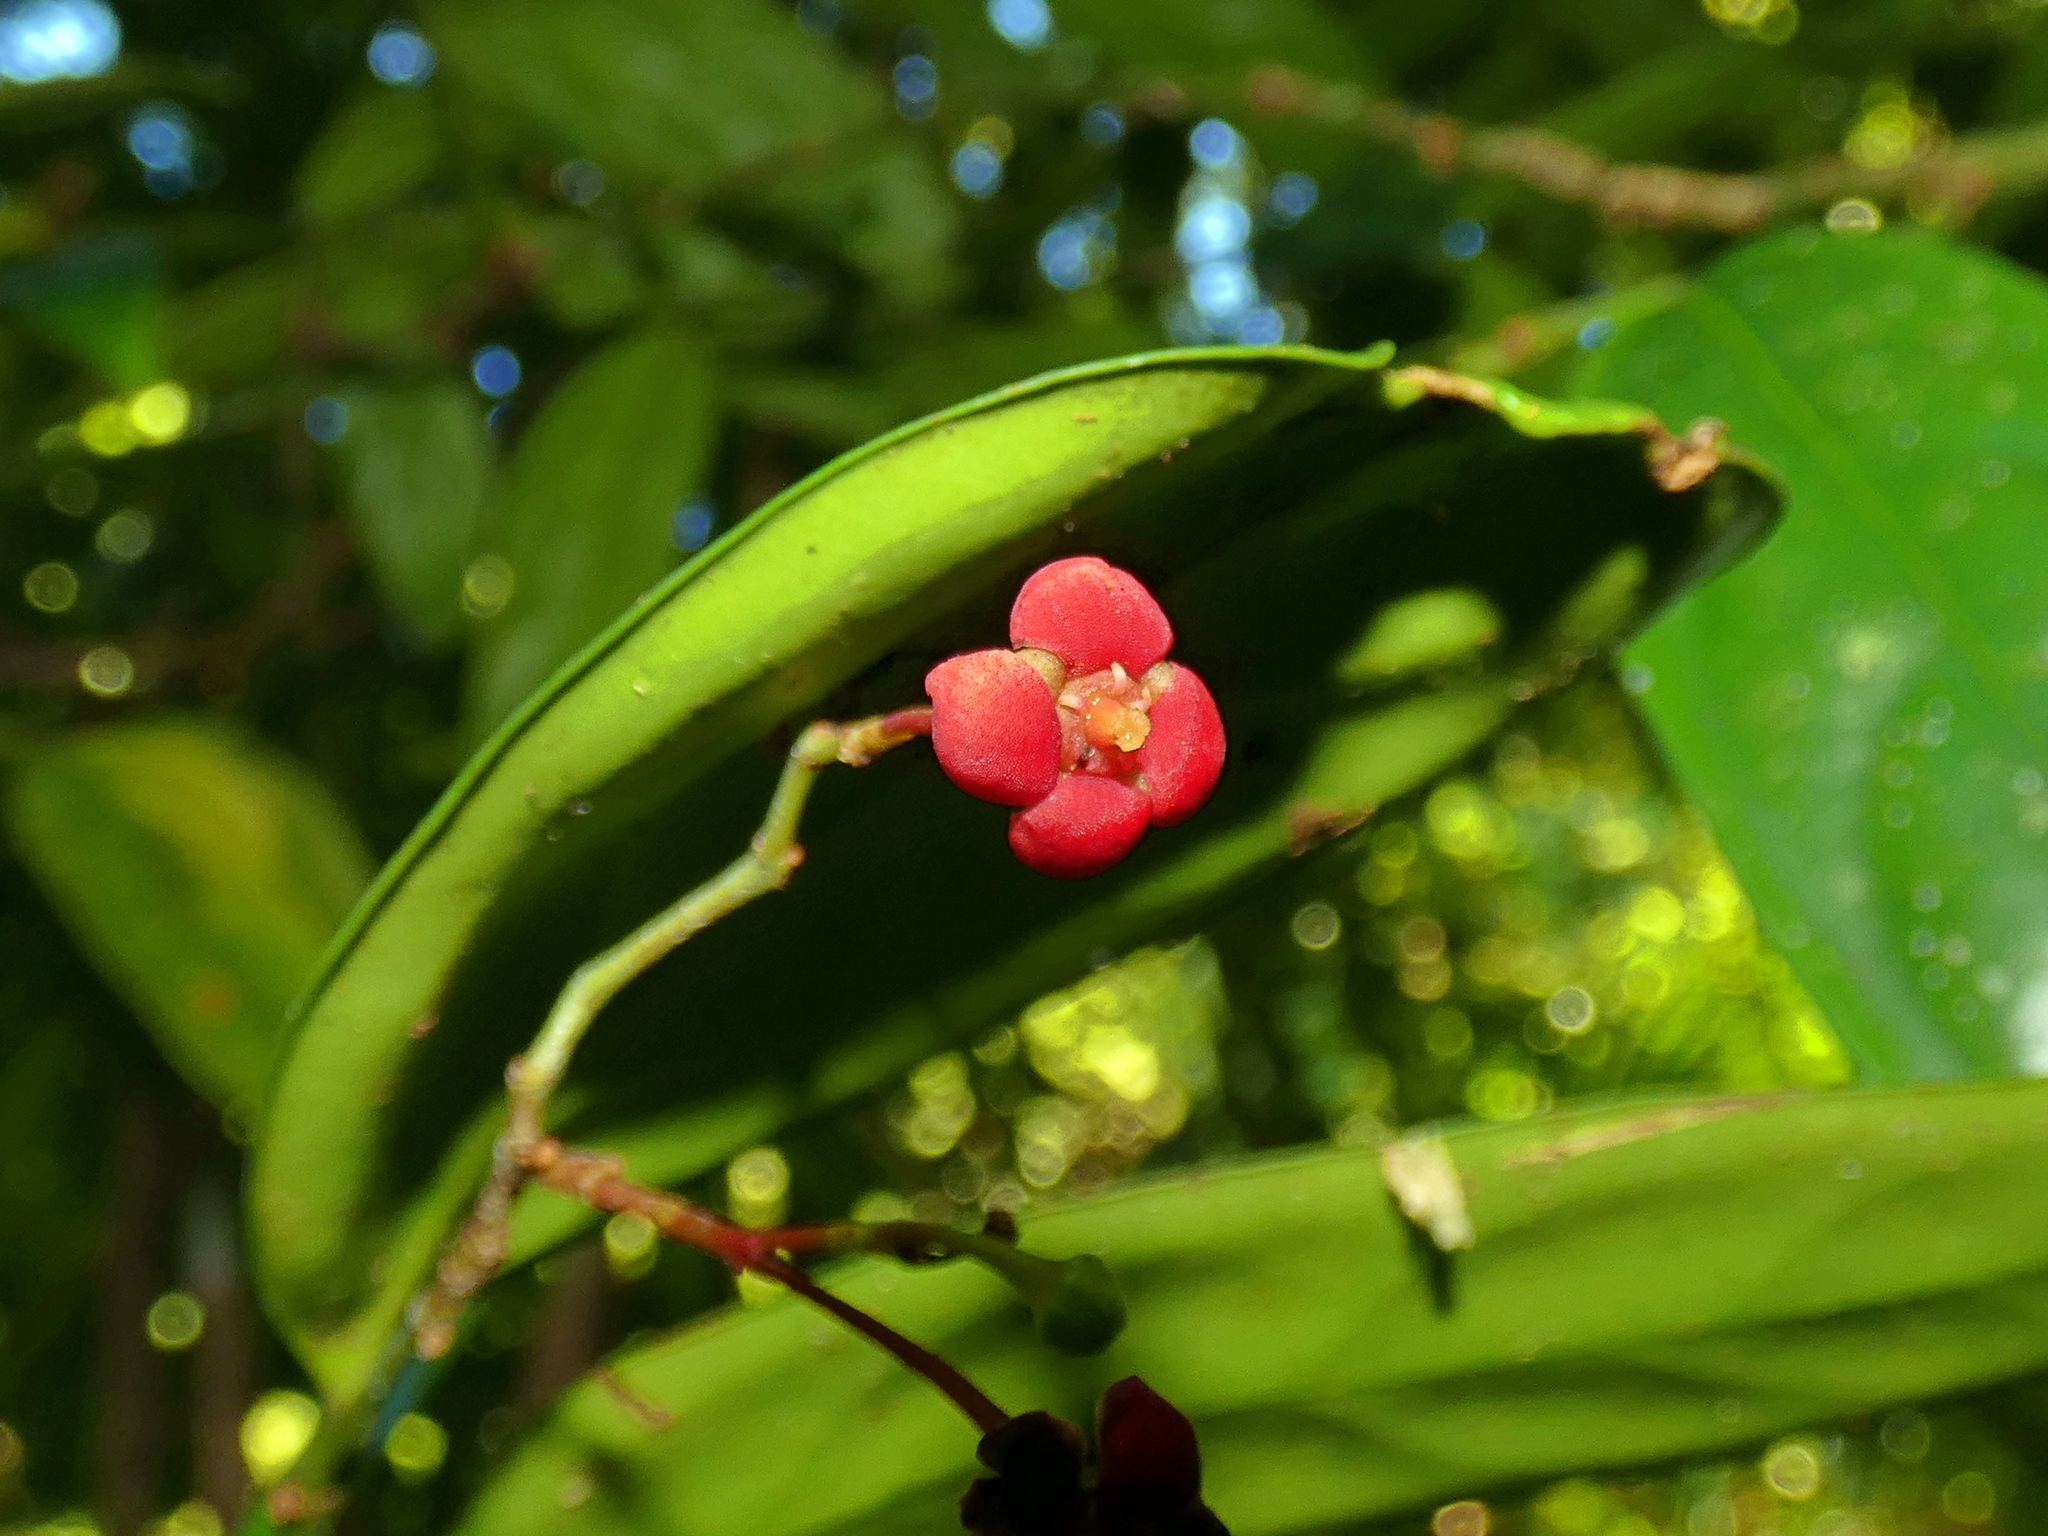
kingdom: Plantae
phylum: Tracheophyta
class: Magnoliopsida
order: Celastrales
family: Celastraceae
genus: Hypsophila
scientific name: Hypsophila dielsiana
